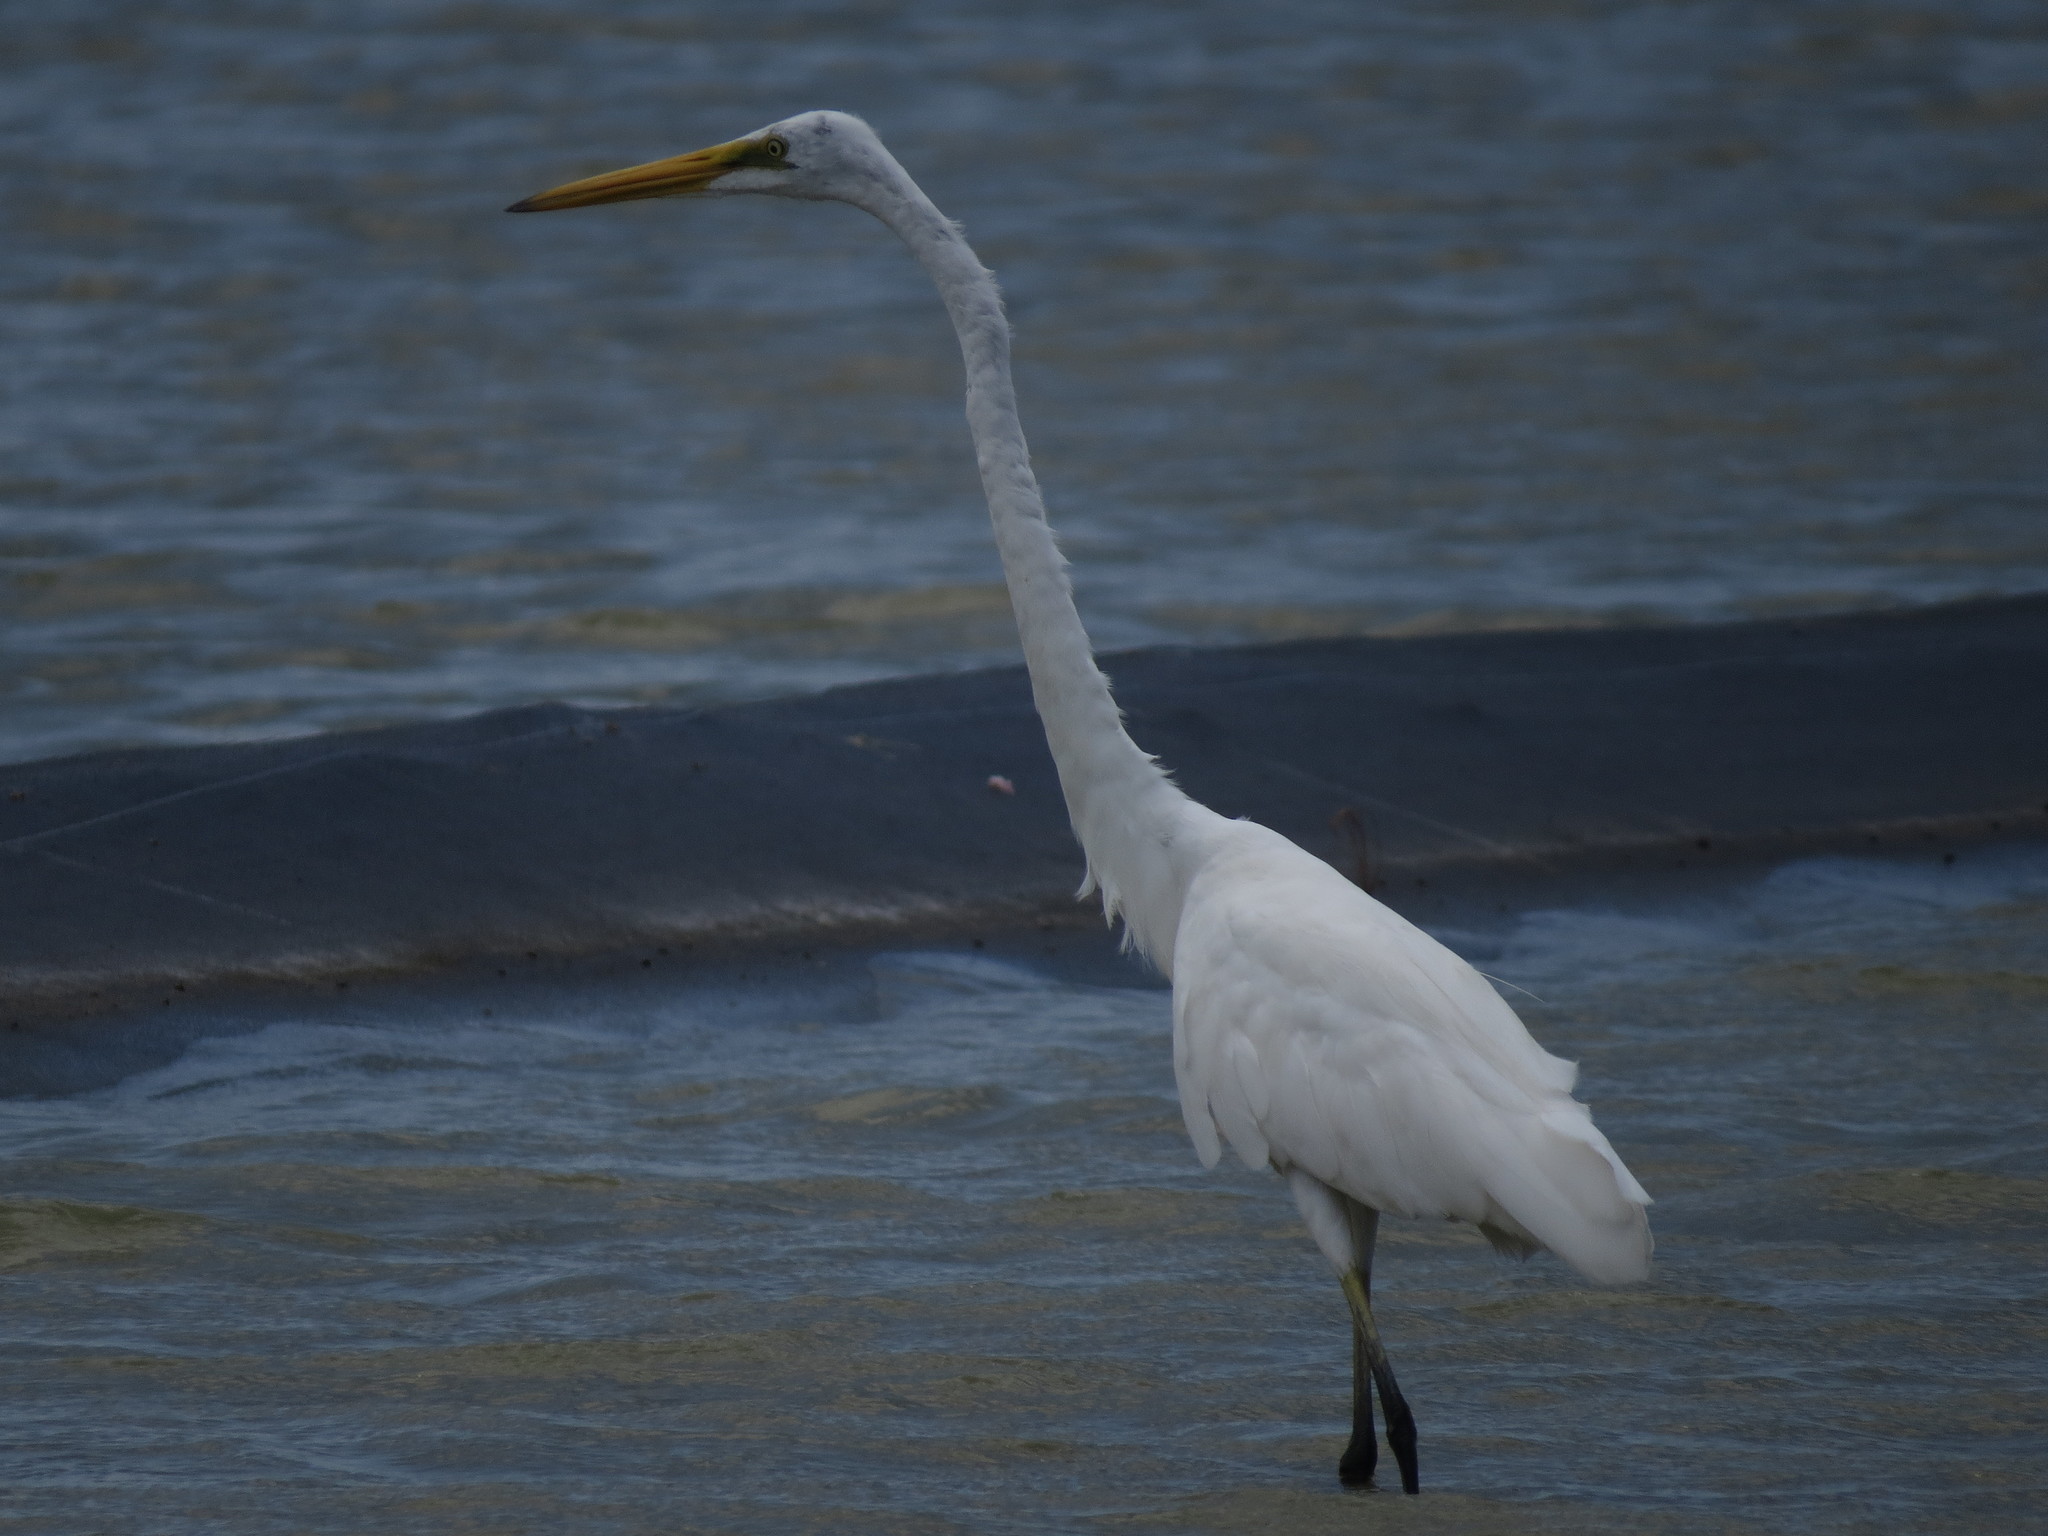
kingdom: Animalia
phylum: Chordata
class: Aves
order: Pelecaniformes
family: Ardeidae
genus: Ardea
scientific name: Ardea alba
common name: Great egret
